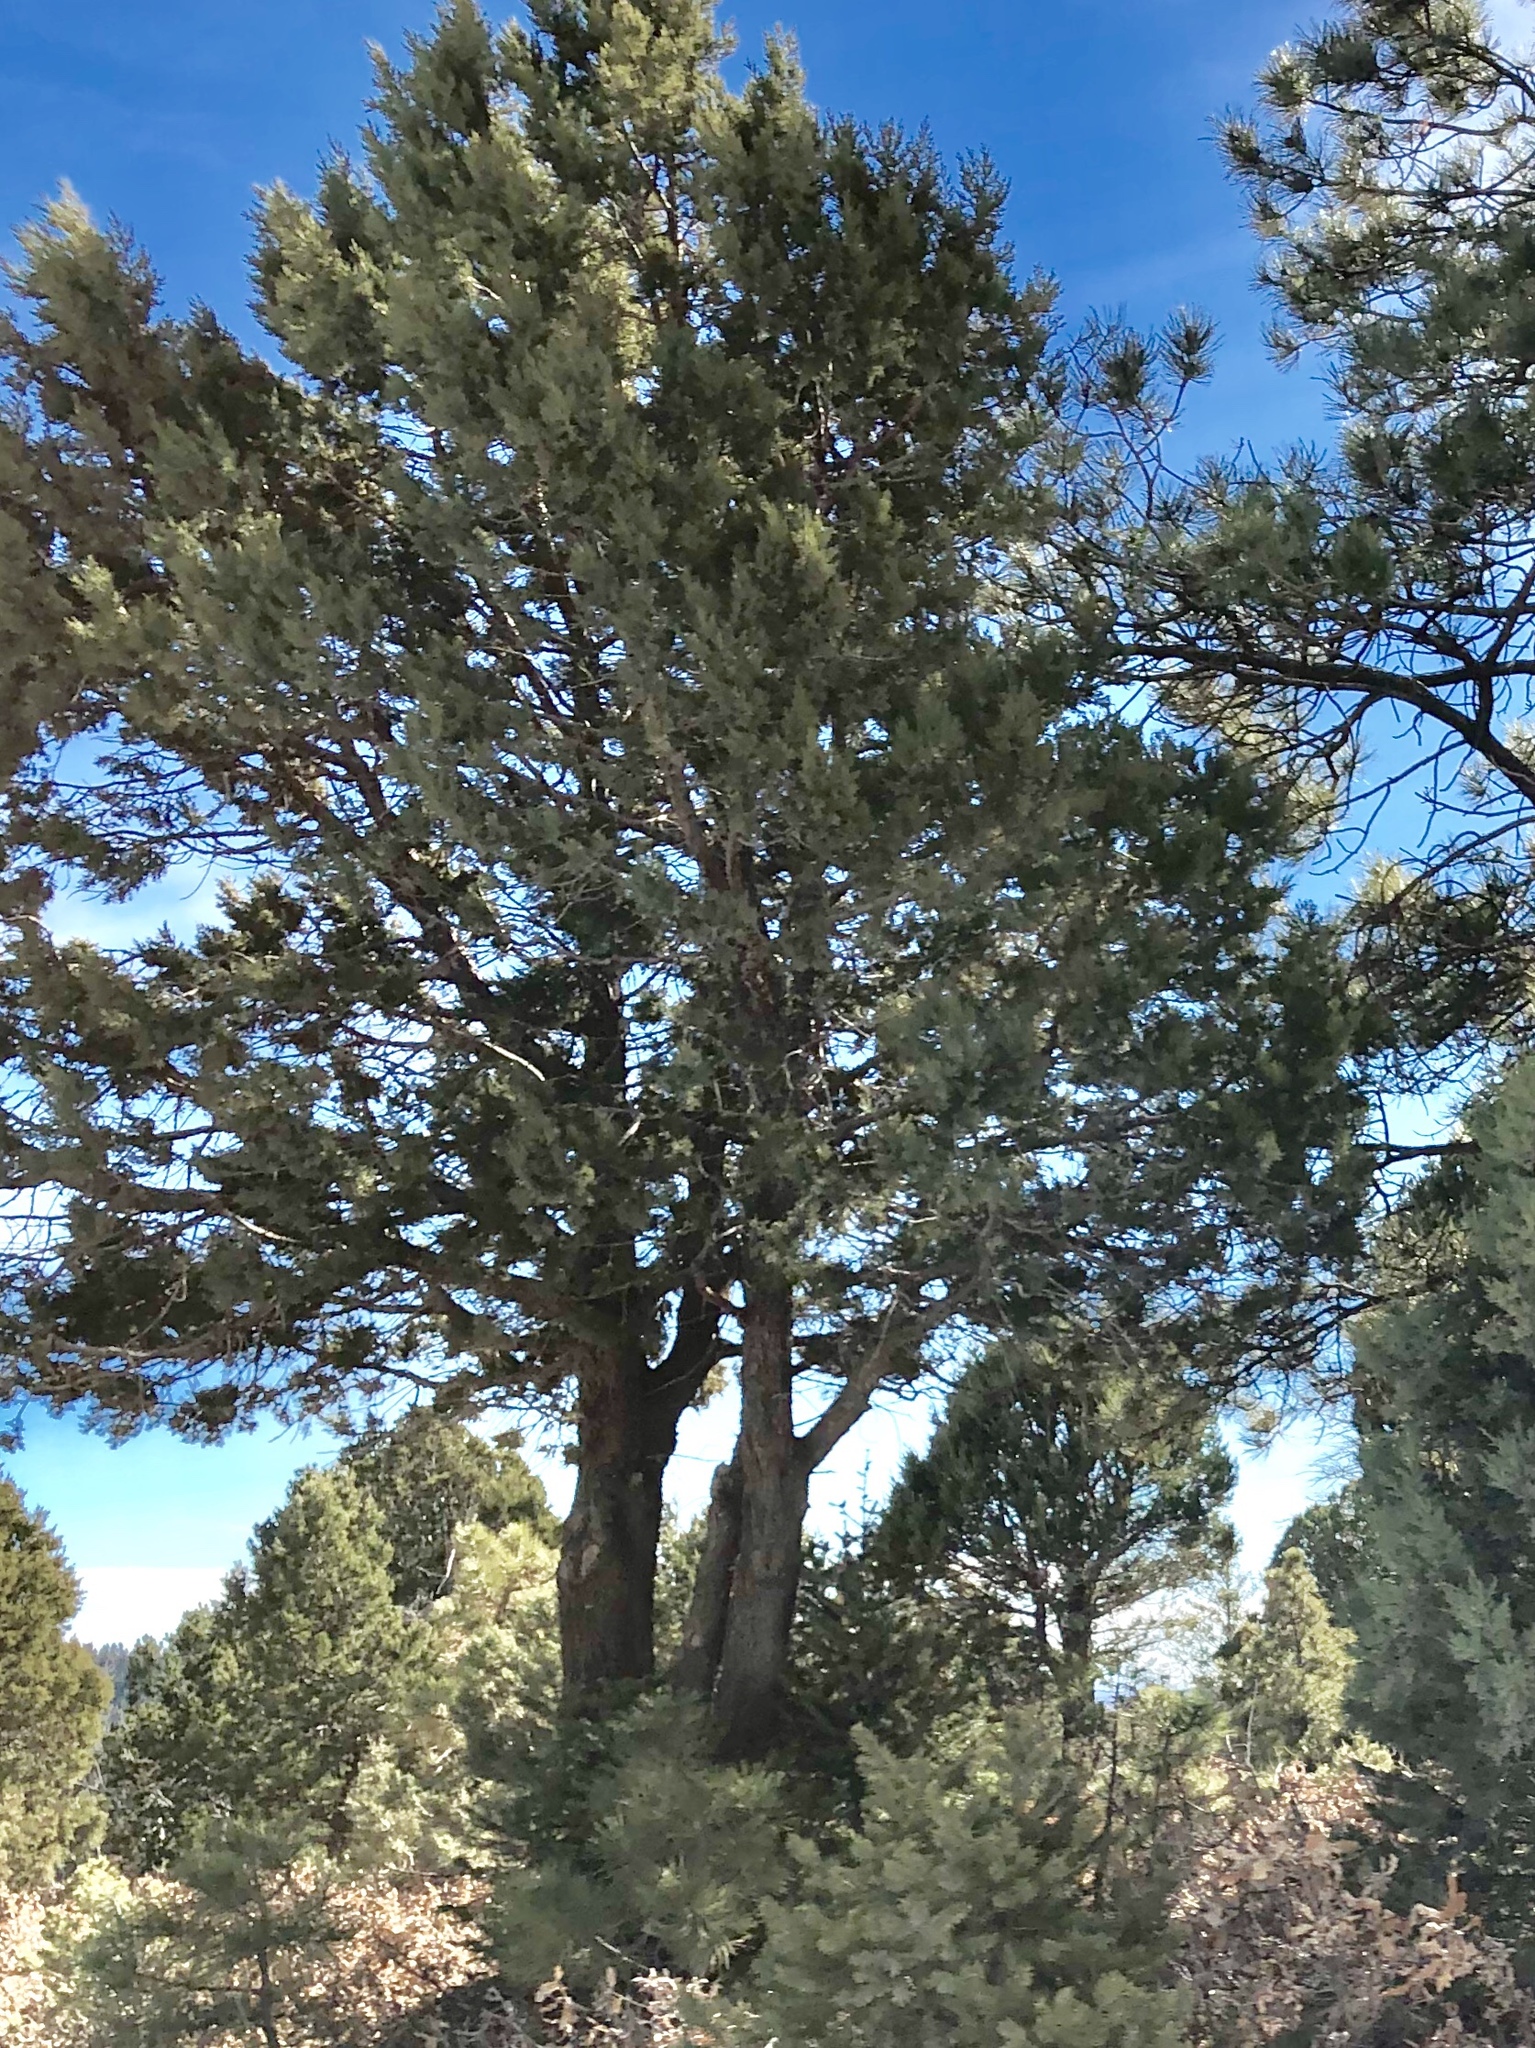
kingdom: Plantae
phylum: Tracheophyta
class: Pinopsida
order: Pinales
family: Cupressaceae
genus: Juniperus
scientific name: Juniperus deppeana
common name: Alligator juniper
